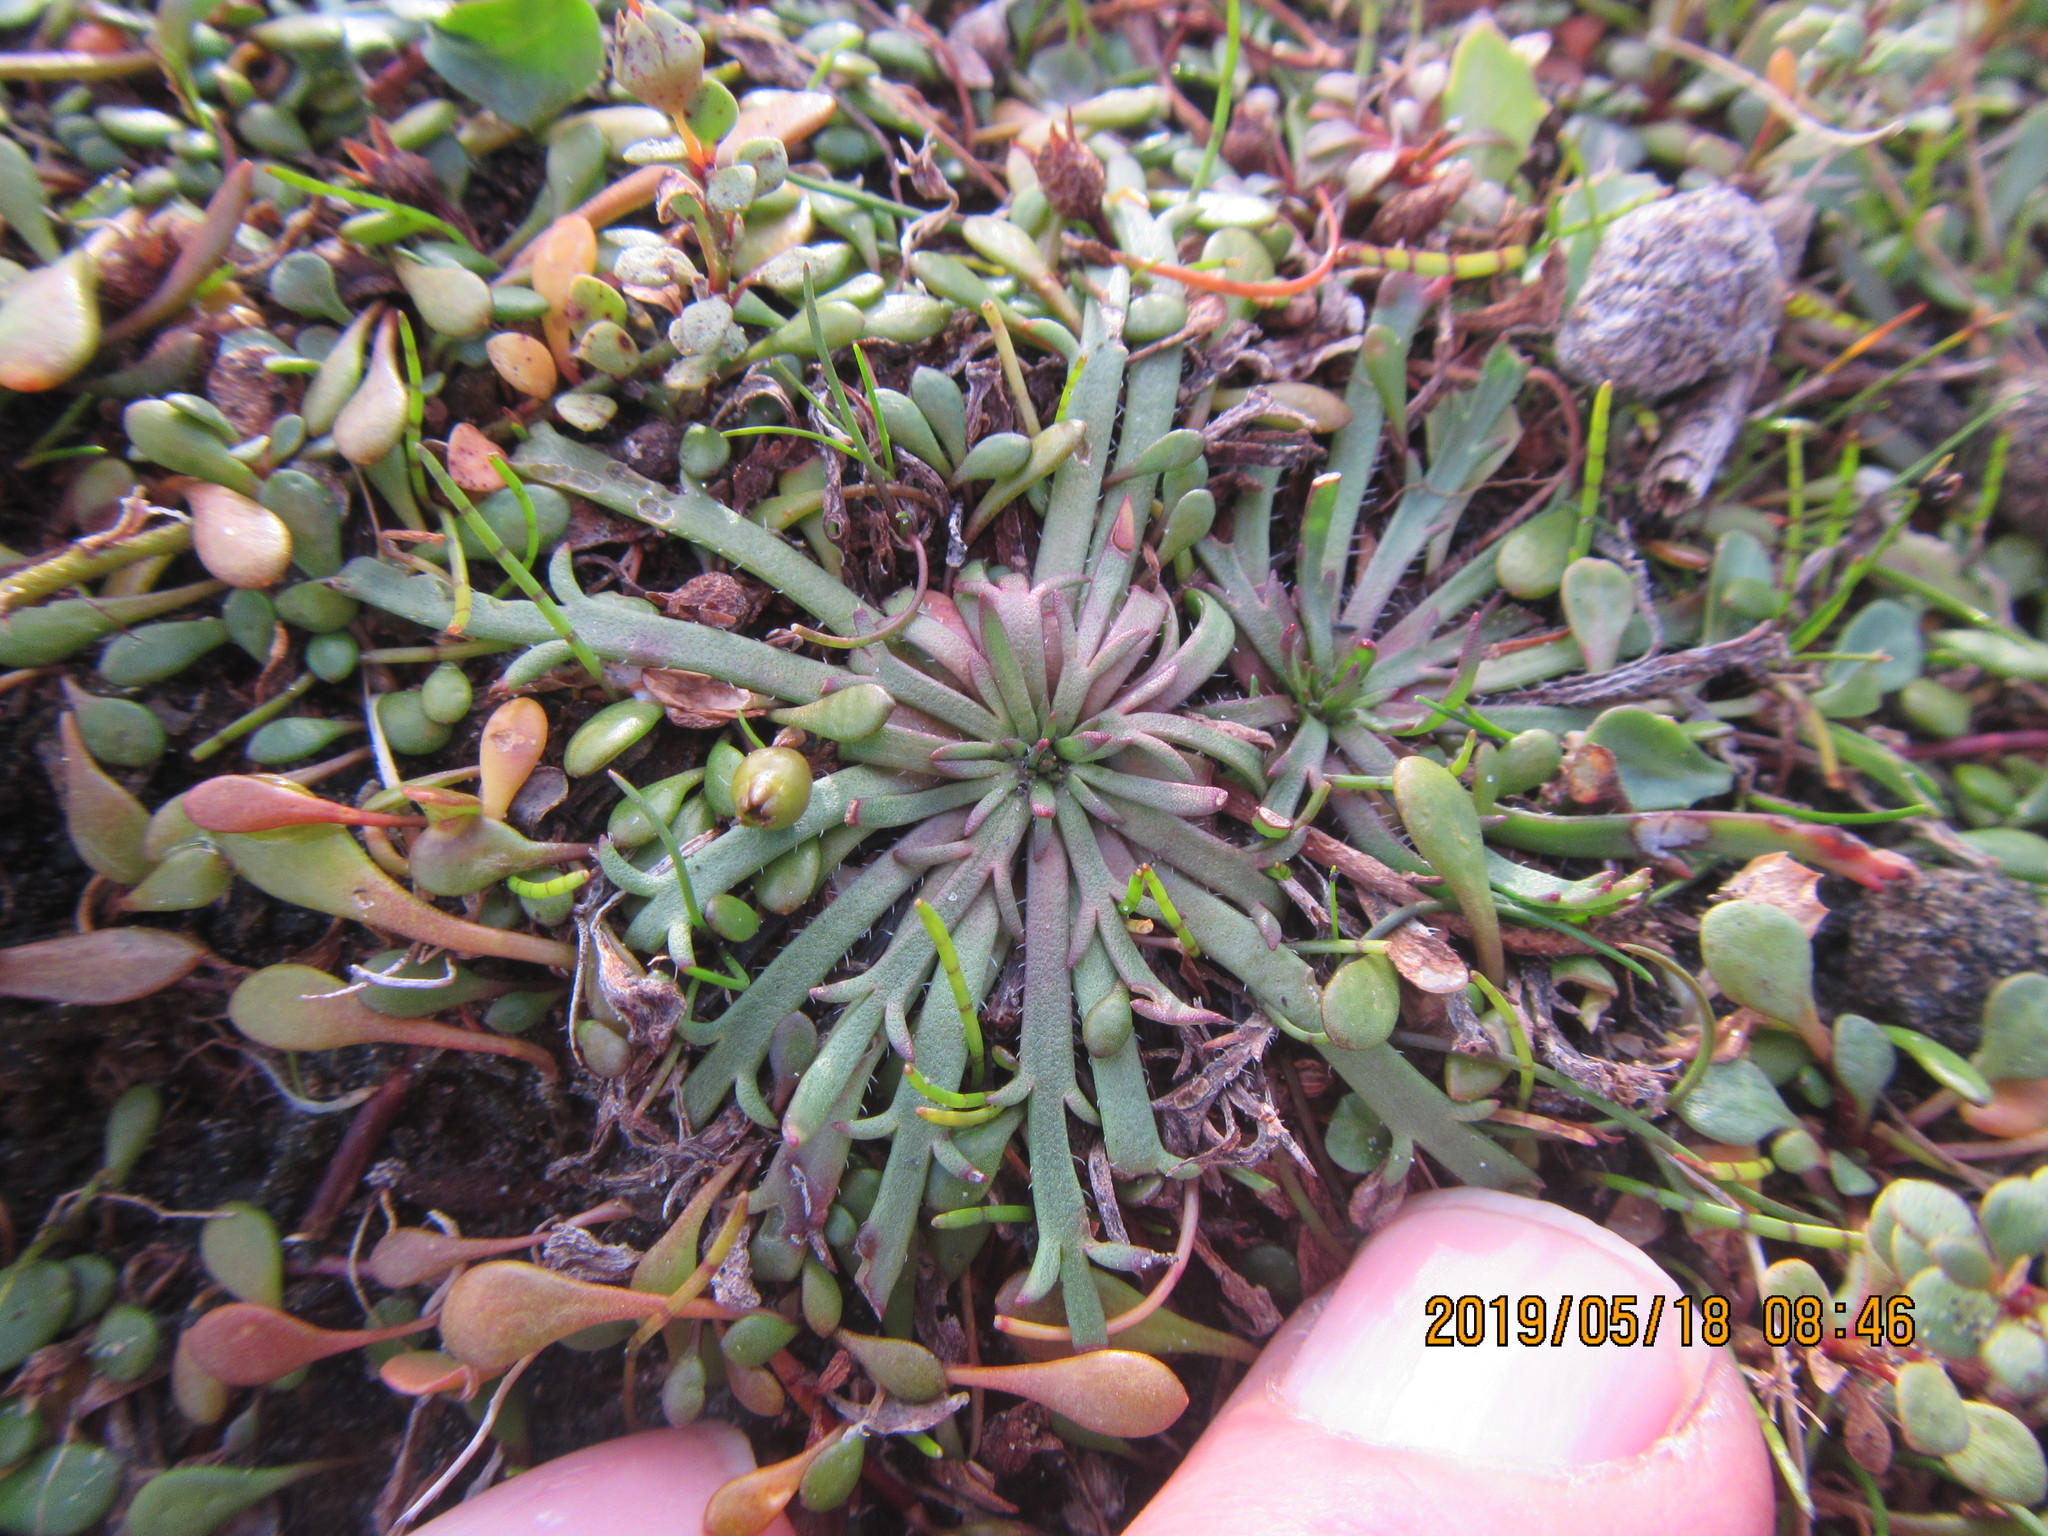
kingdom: Plantae
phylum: Tracheophyta
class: Magnoliopsida
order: Lamiales
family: Plantaginaceae
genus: Plantago
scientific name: Plantago coronopus
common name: Buck's-horn plantain
